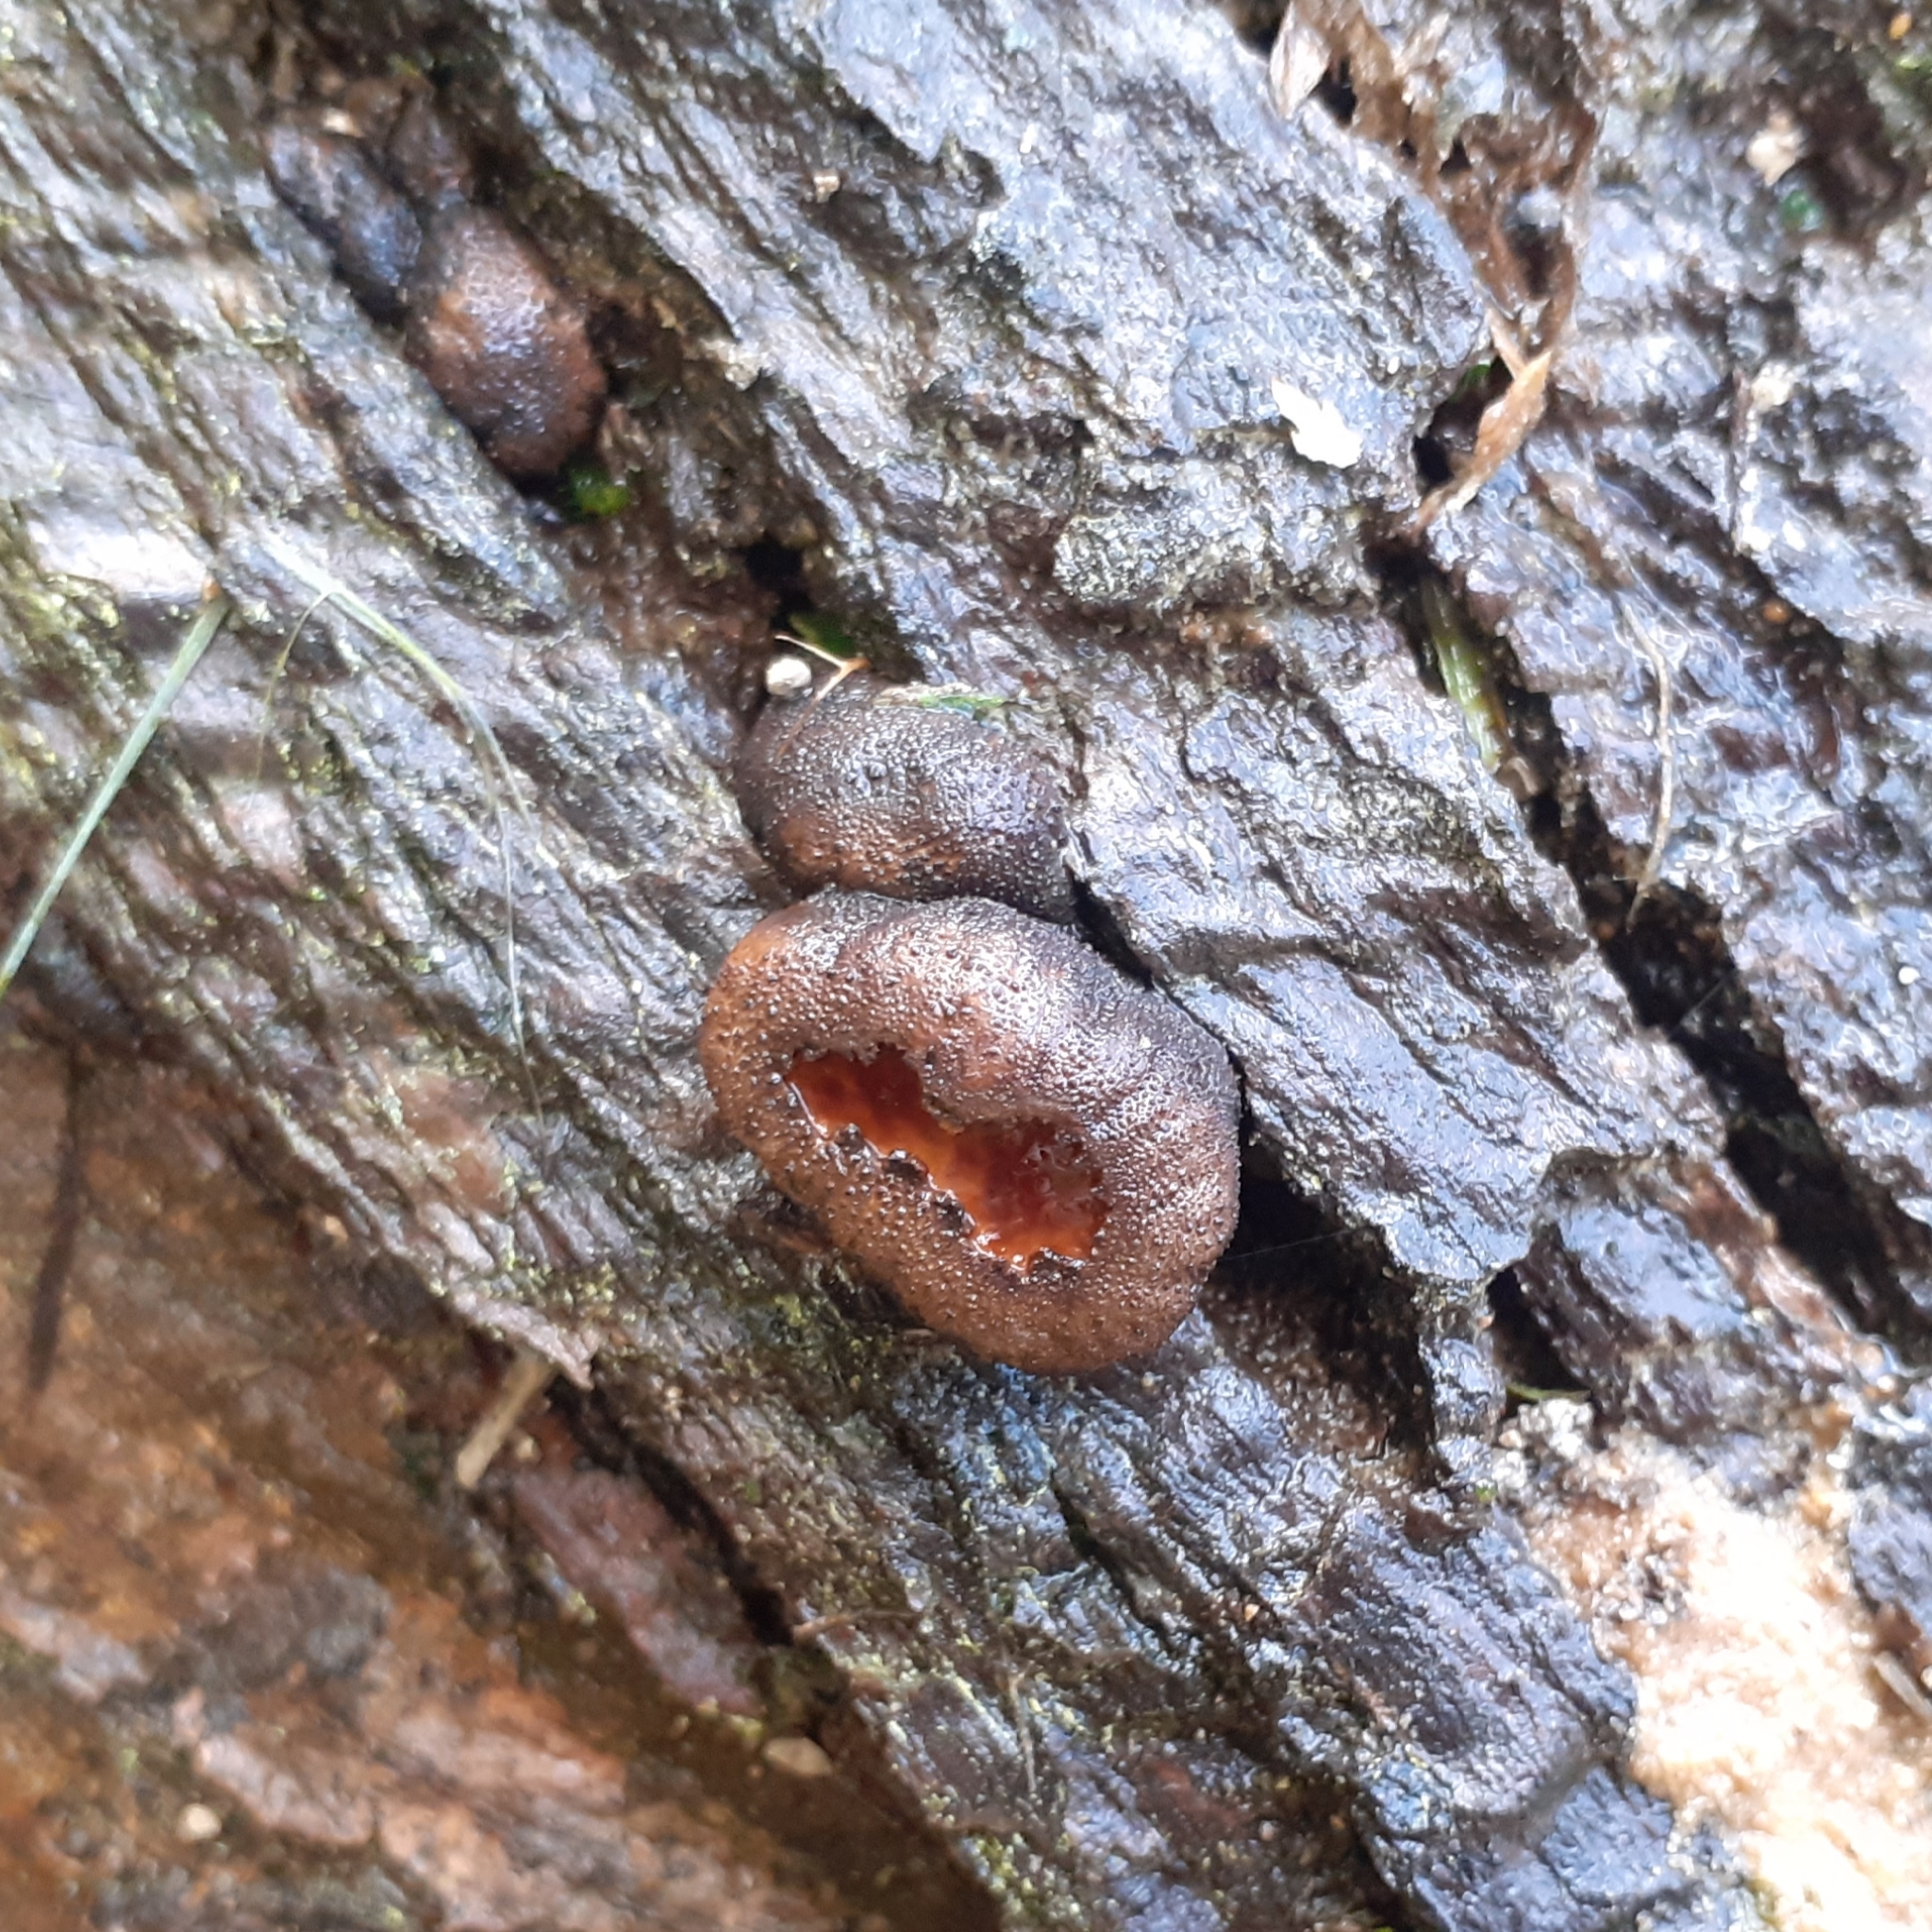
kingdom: Fungi
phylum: Ascomycota
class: Leotiomycetes
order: Phacidiales
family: Phacidiaceae
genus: Bulgaria
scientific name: Bulgaria inquinans
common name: Black bulgar
